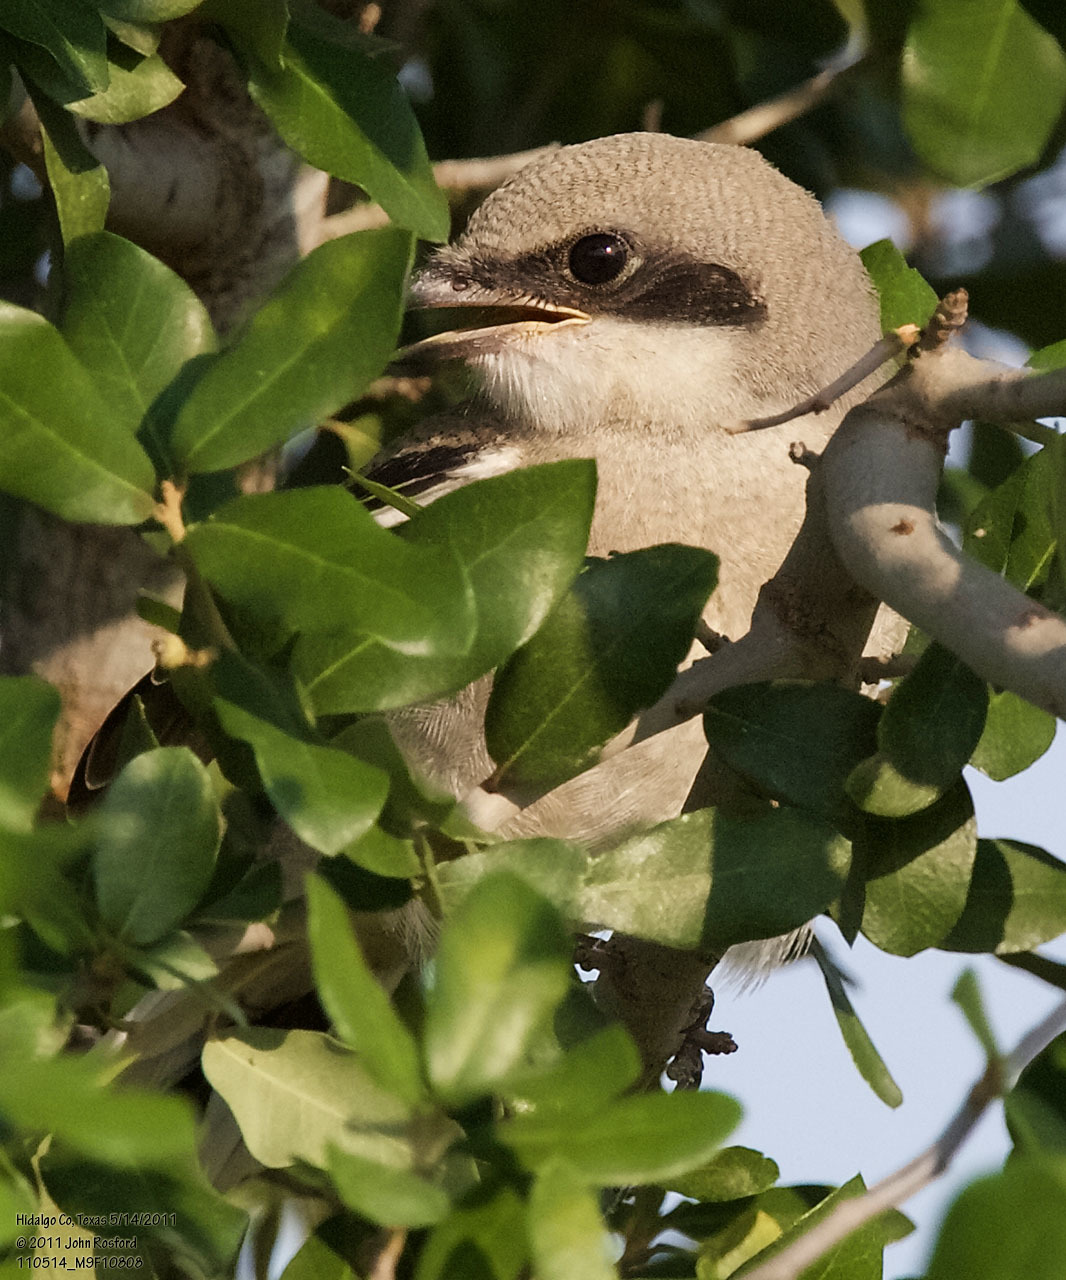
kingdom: Animalia
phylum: Chordata
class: Aves
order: Passeriformes
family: Laniidae
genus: Lanius
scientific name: Lanius ludovicianus
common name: Loggerhead shrike
